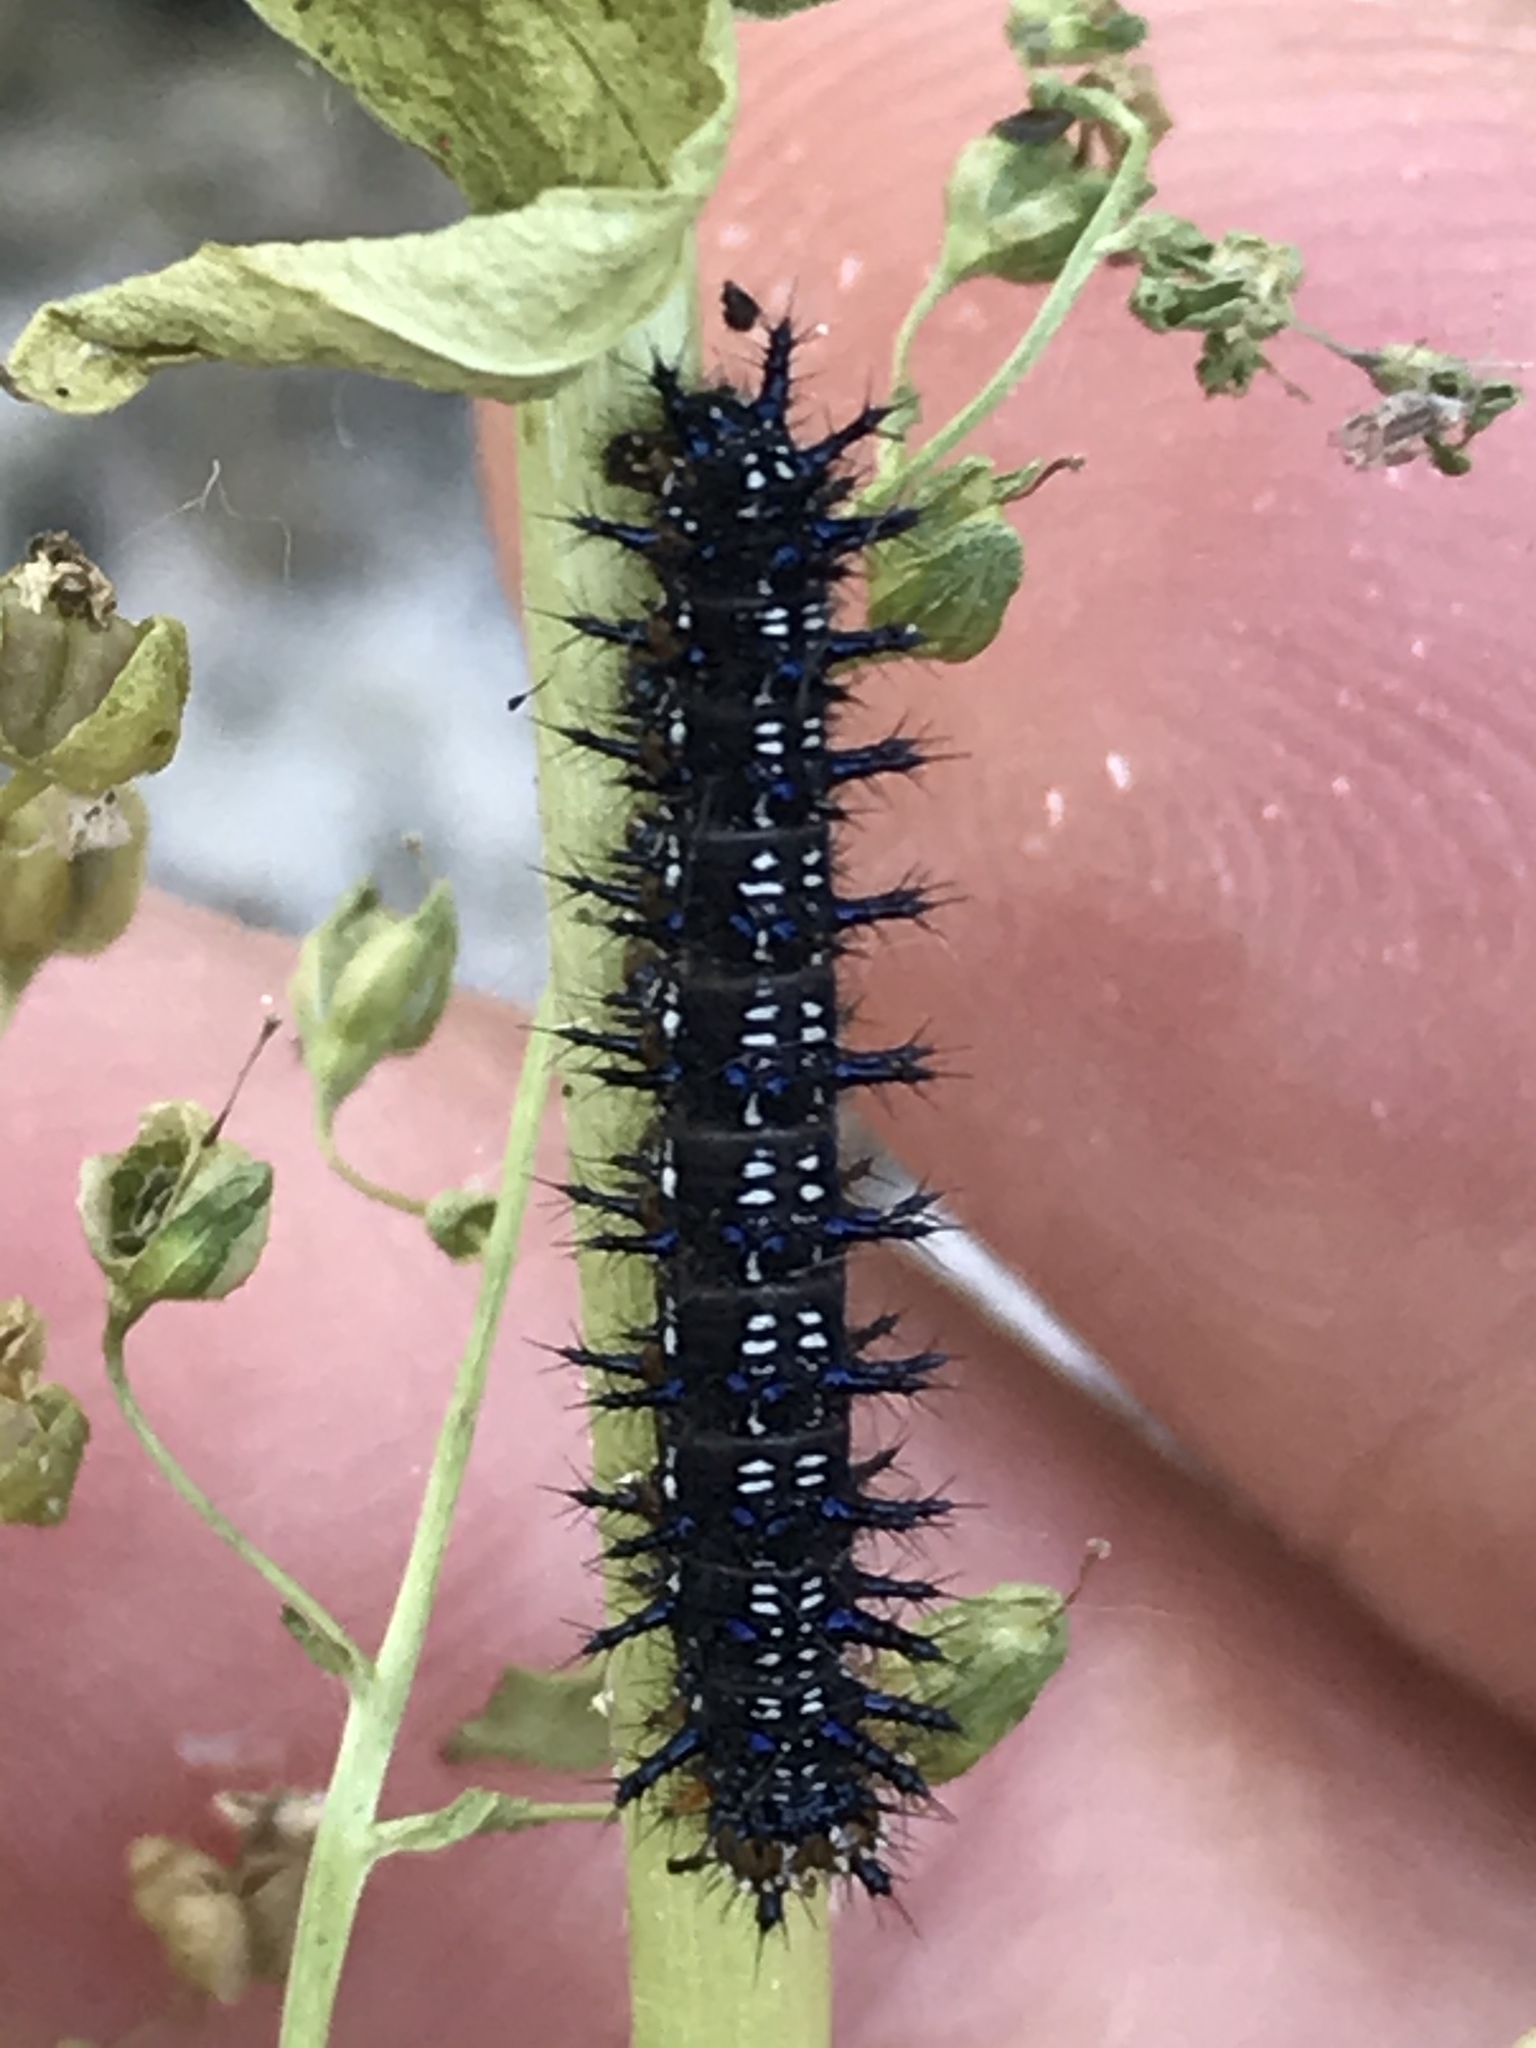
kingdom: Animalia
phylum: Arthropoda
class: Insecta
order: Lepidoptera
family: Nymphalidae
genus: Junonia
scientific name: Junonia grisea
